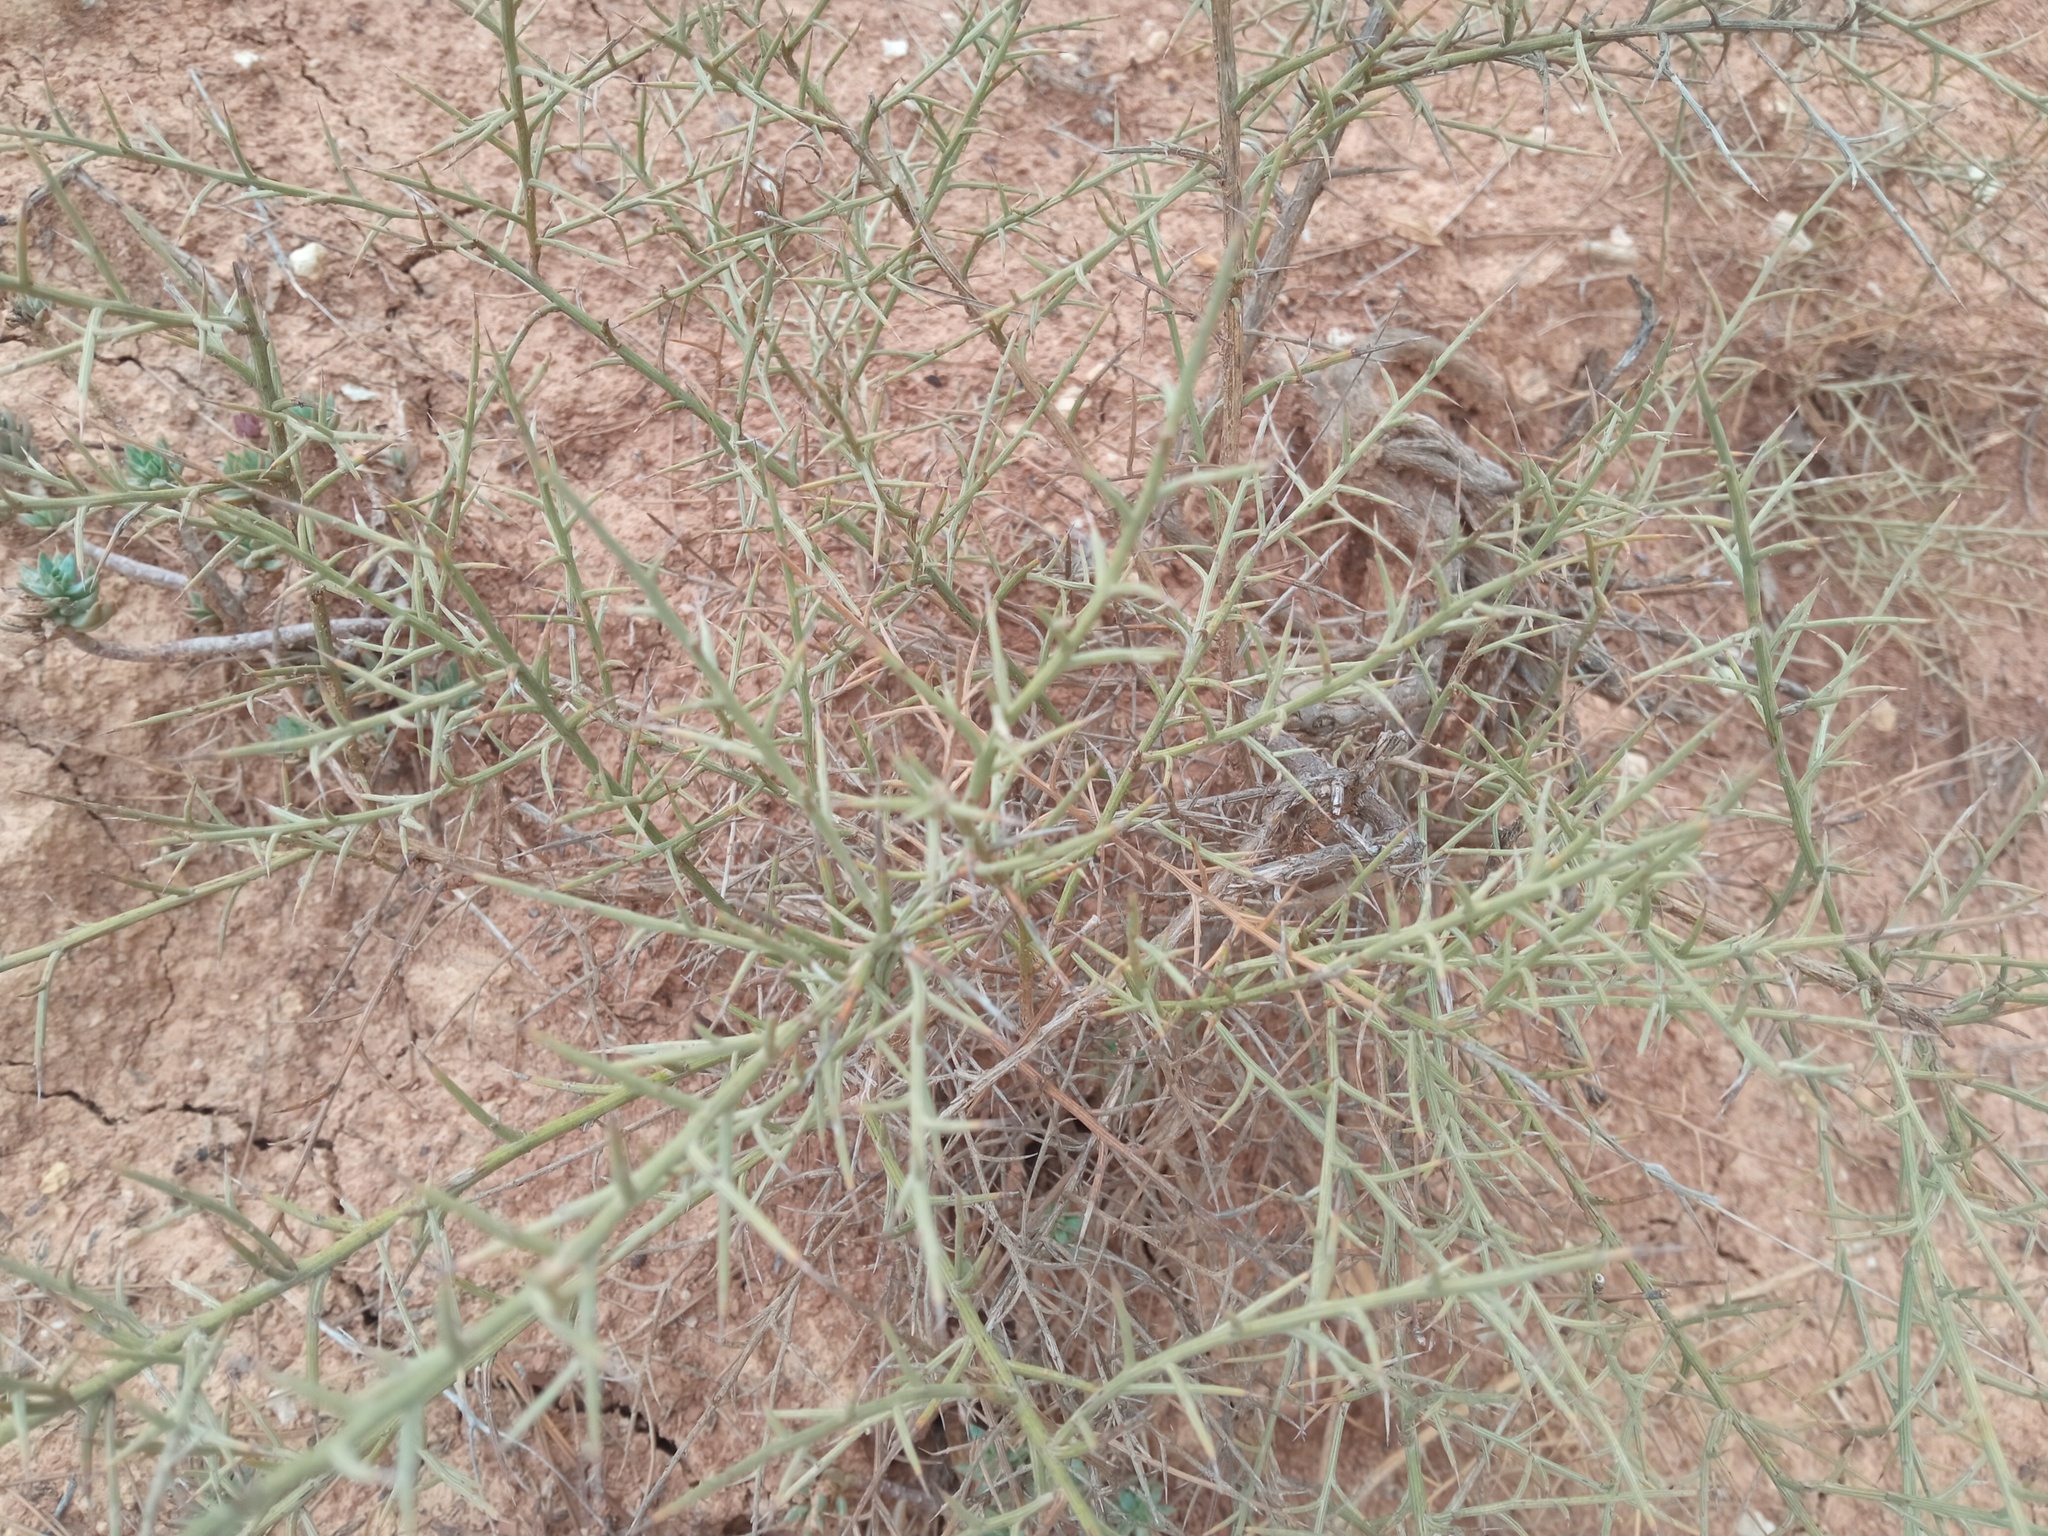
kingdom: Plantae
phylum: Tracheophyta
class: Magnoliopsida
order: Fabales
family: Fabaceae
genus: Genista
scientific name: Genista scorpius
